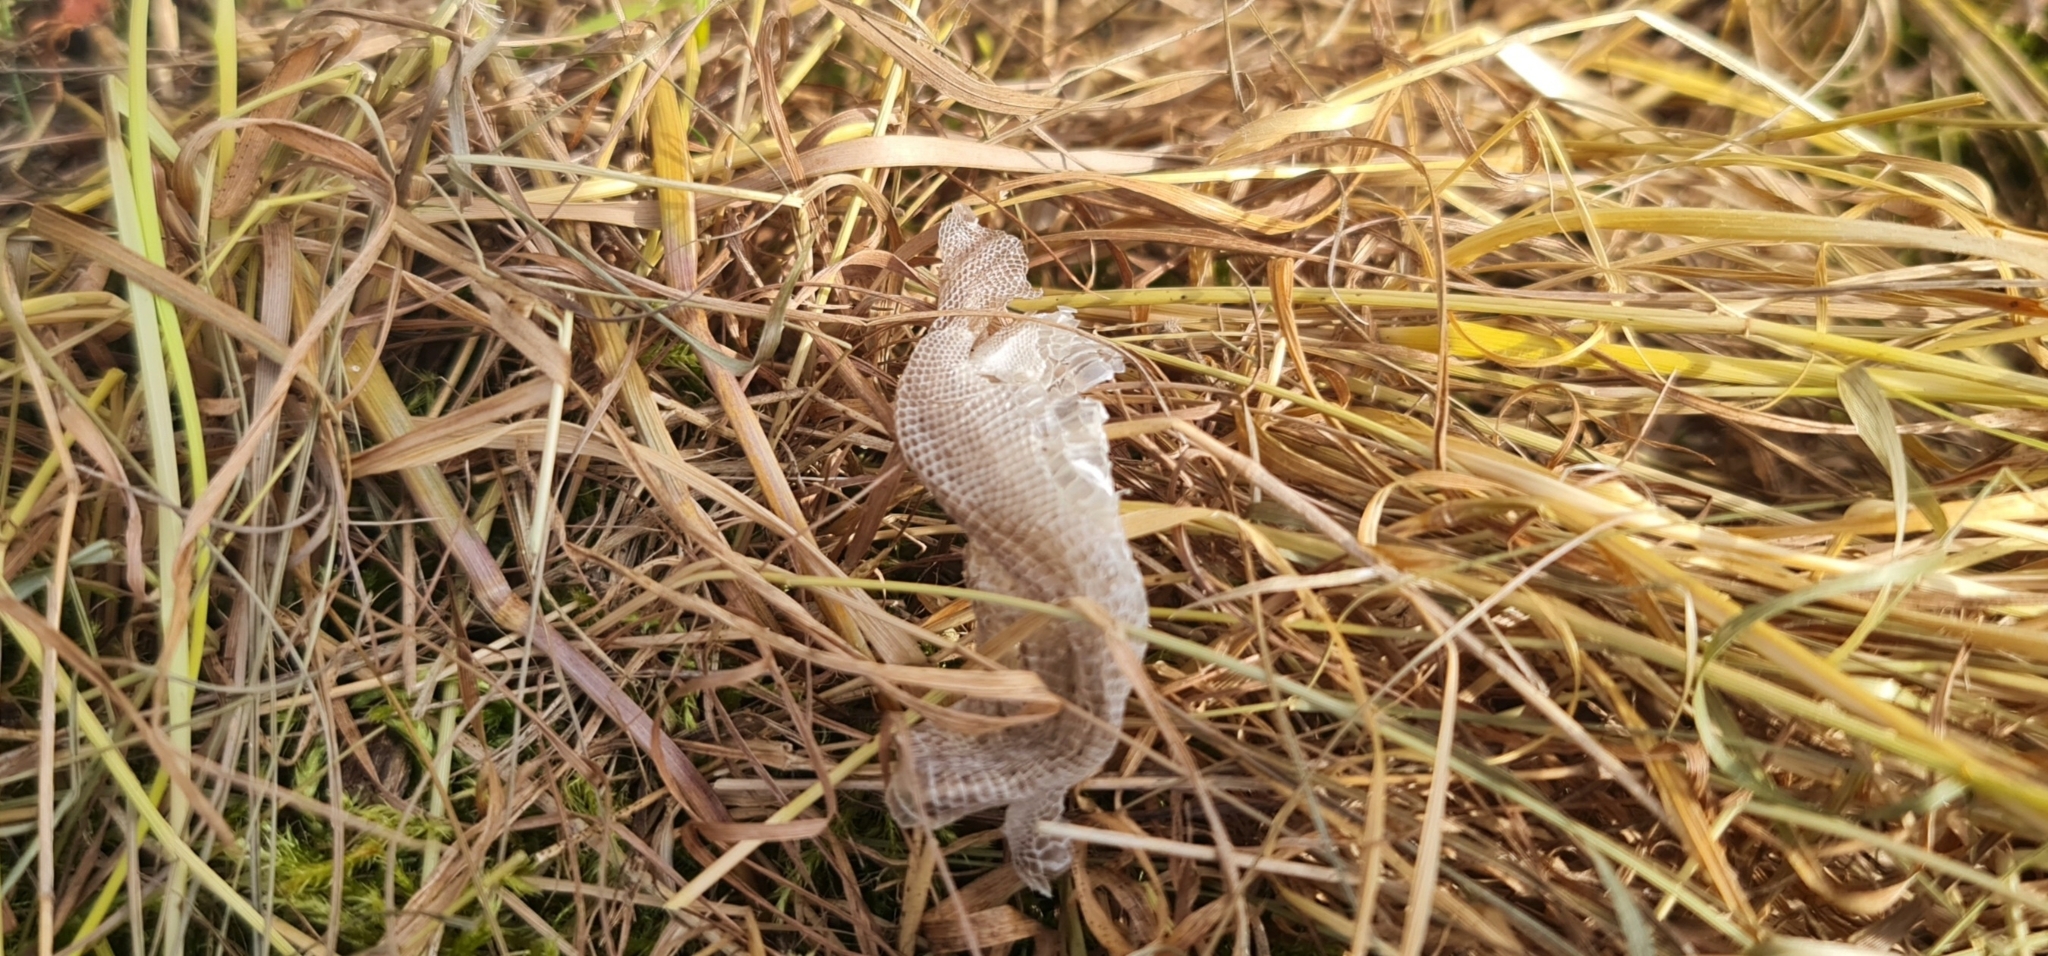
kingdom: Animalia
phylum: Chordata
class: Squamata
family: Lacertidae
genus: Zootoca
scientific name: Zootoca vivipara
